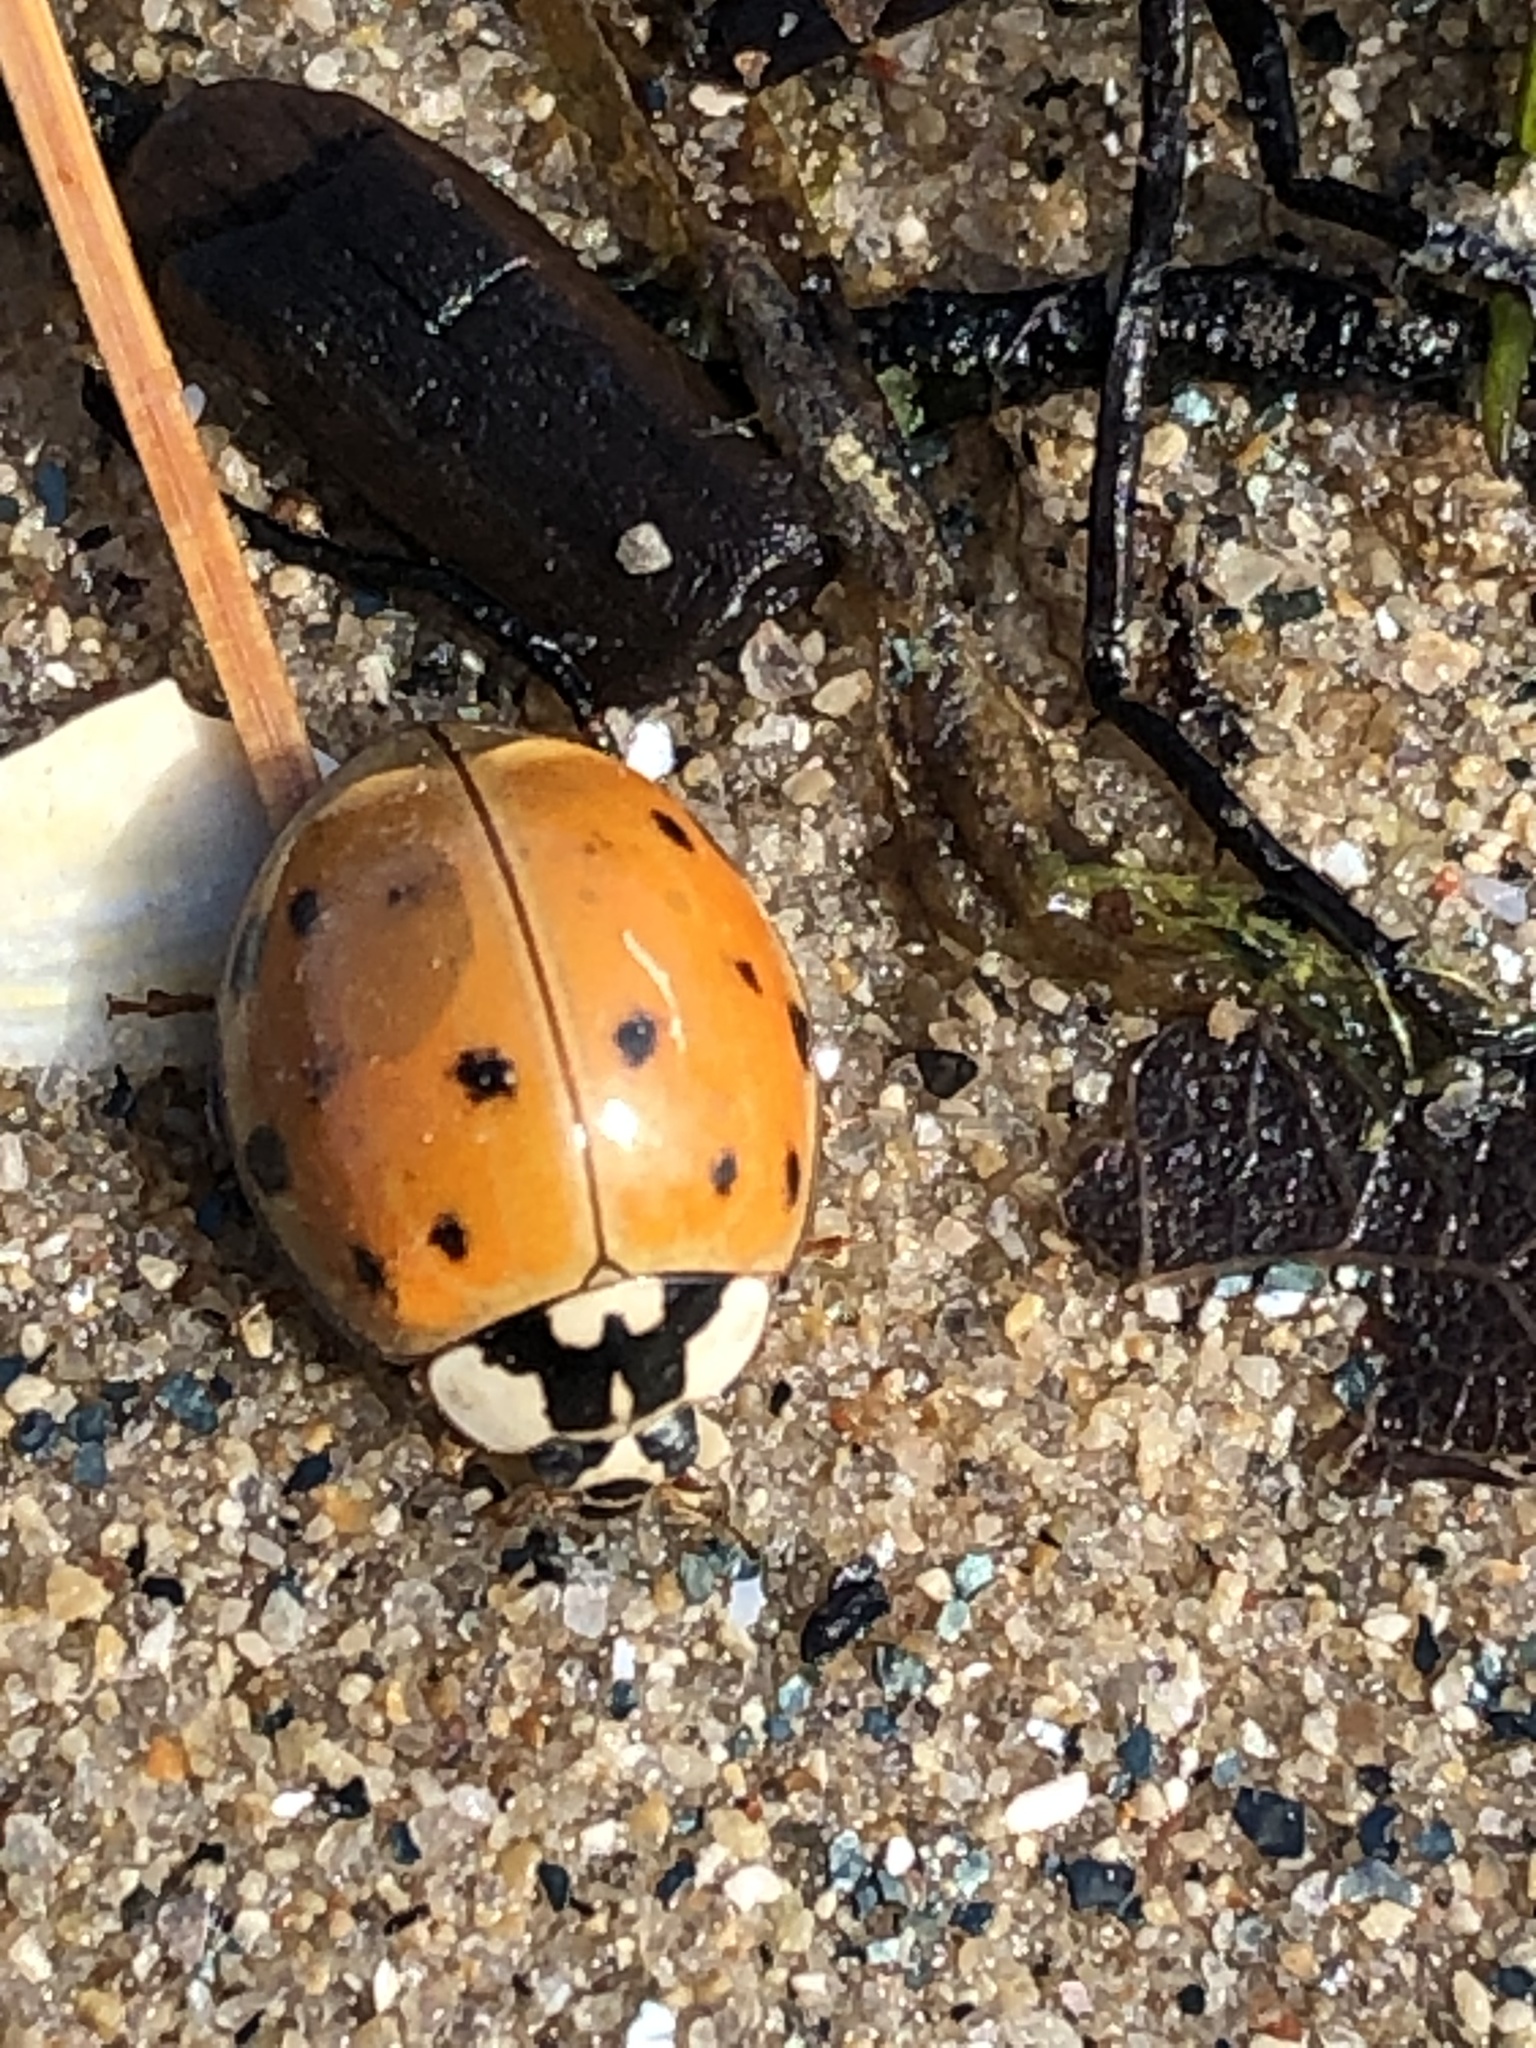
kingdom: Animalia
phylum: Arthropoda
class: Insecta
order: Coleoptera
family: Coccinellidae
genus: Harmonia
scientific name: Harmonia axyridis
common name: Harlequin ladybird
